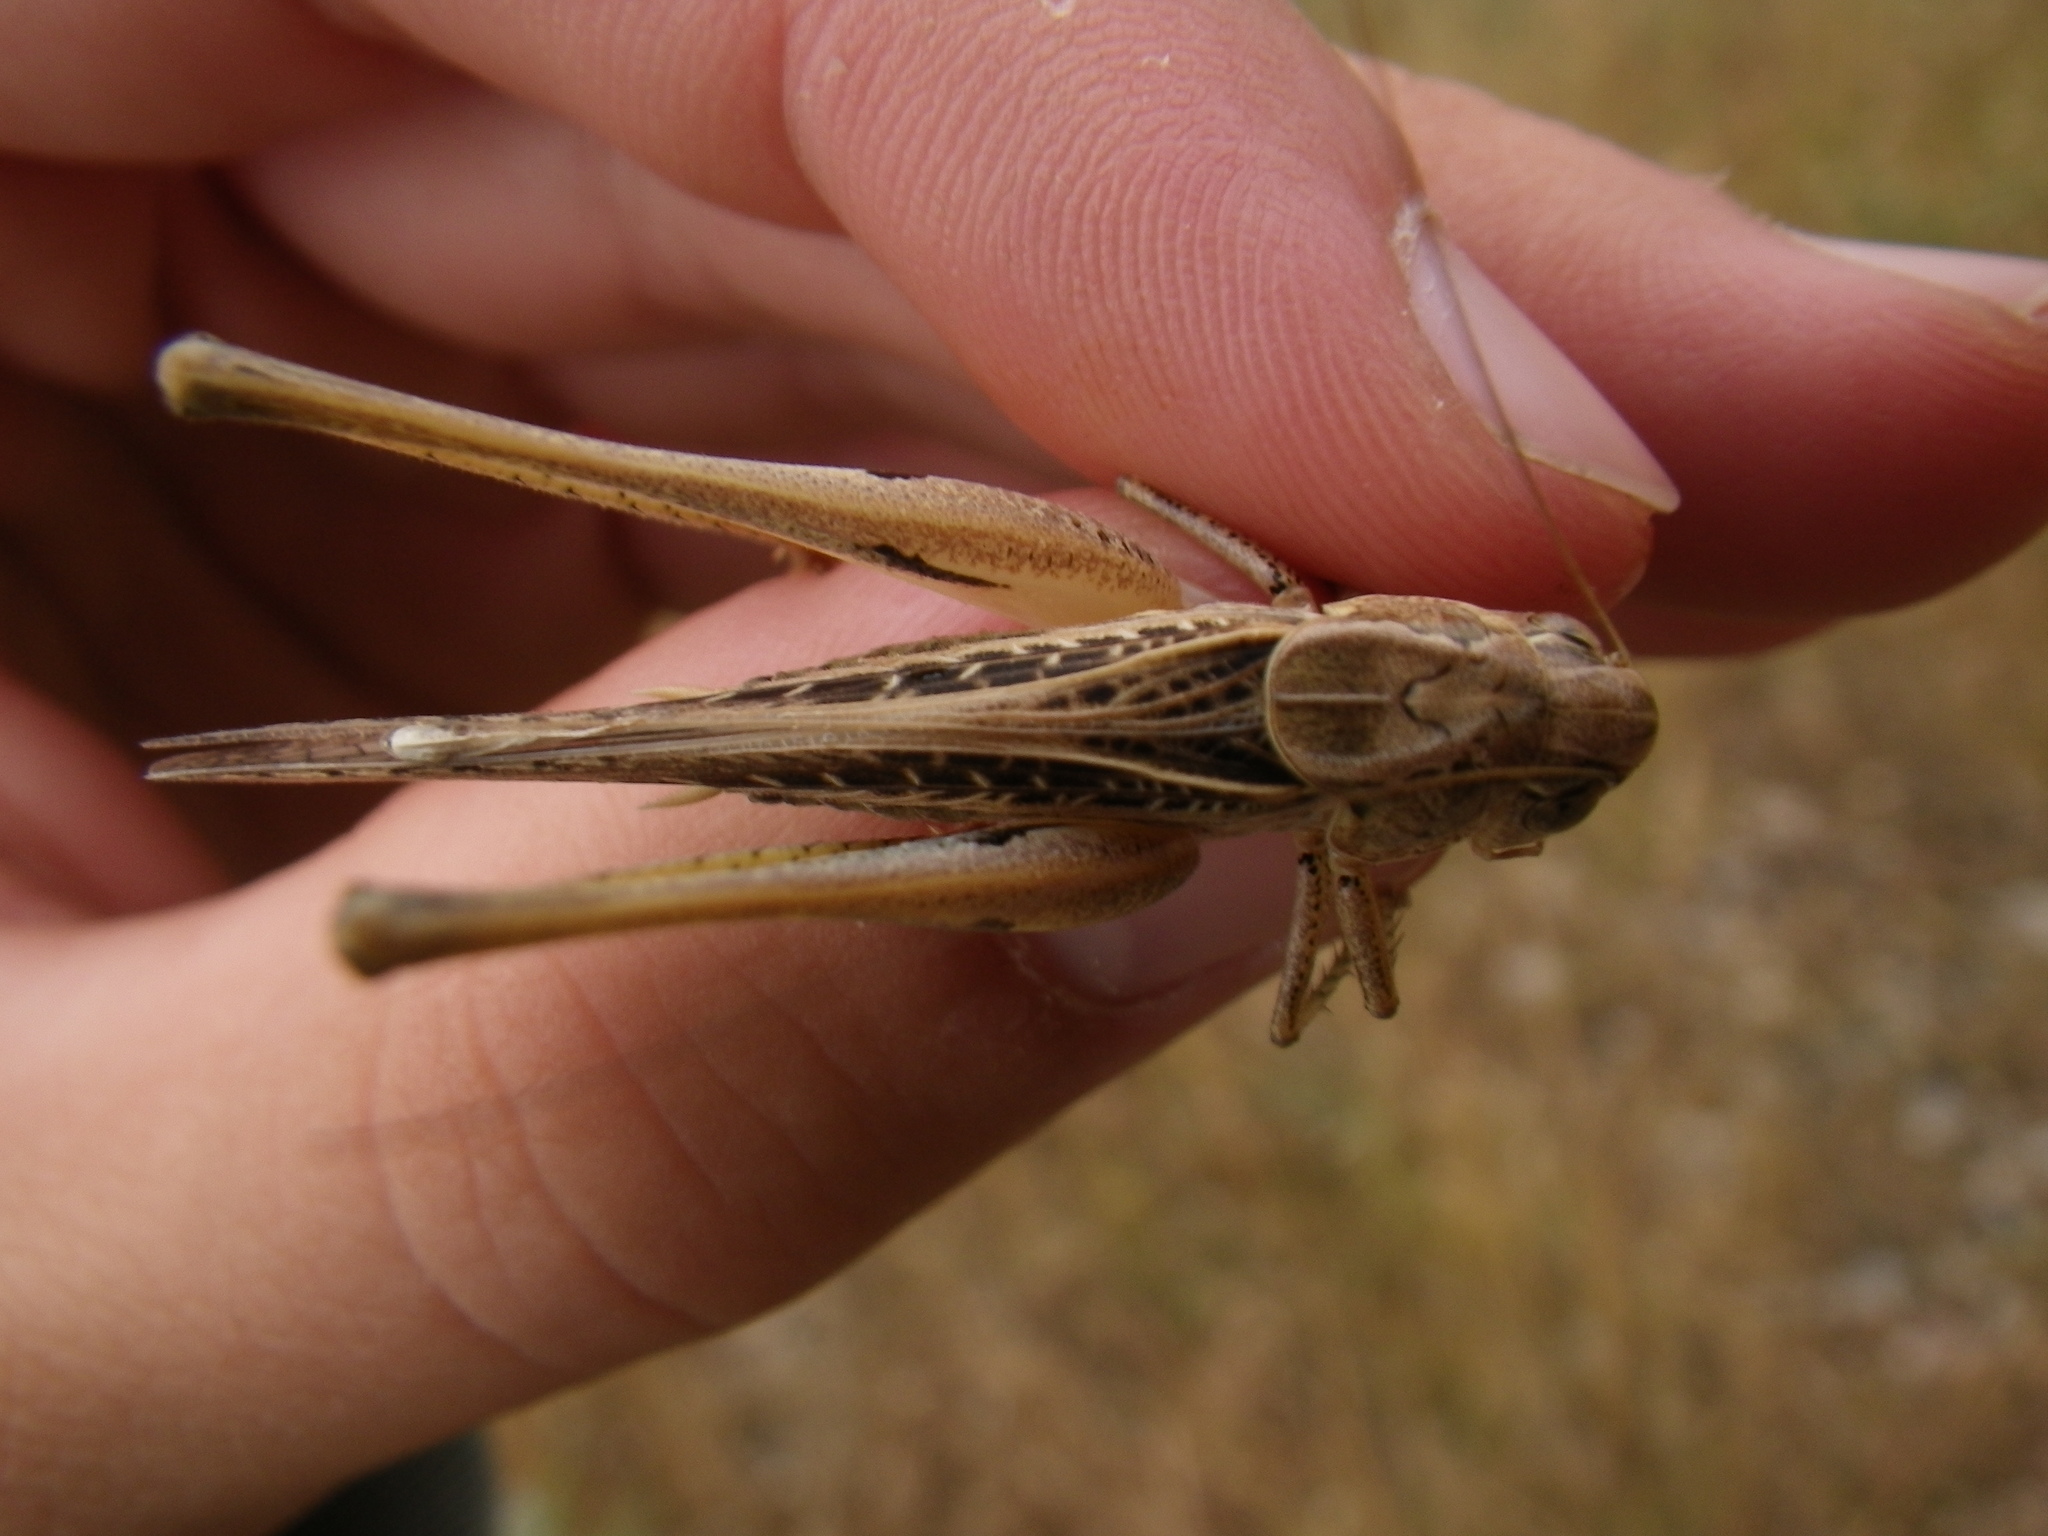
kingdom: Animalia
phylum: Arthropoda
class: Insecta
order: Orthoptera
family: Tettigoniidae
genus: Platycleis
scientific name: Platycleis affinis
